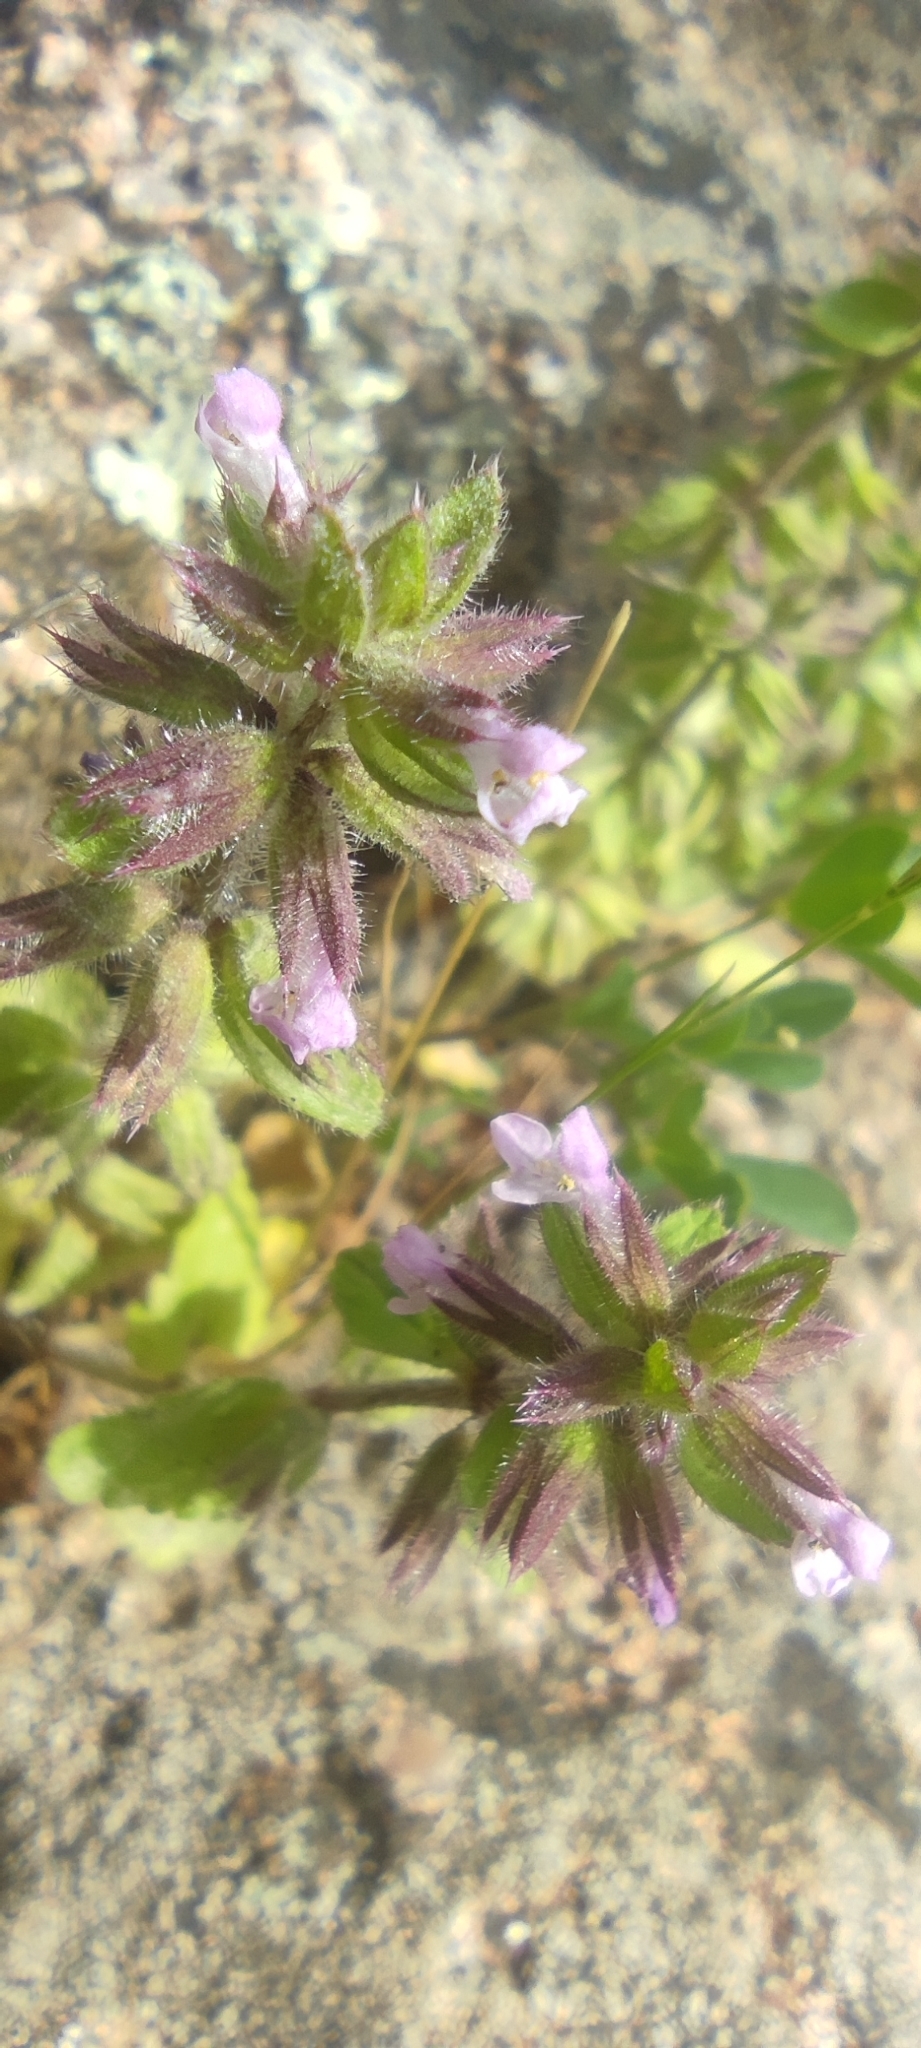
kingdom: Plantae
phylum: Tracheophyta
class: Magnoliopsida
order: Lamiales
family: Lamiaceae
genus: Stachys
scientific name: Stachys arvensis
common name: Field woundwort
